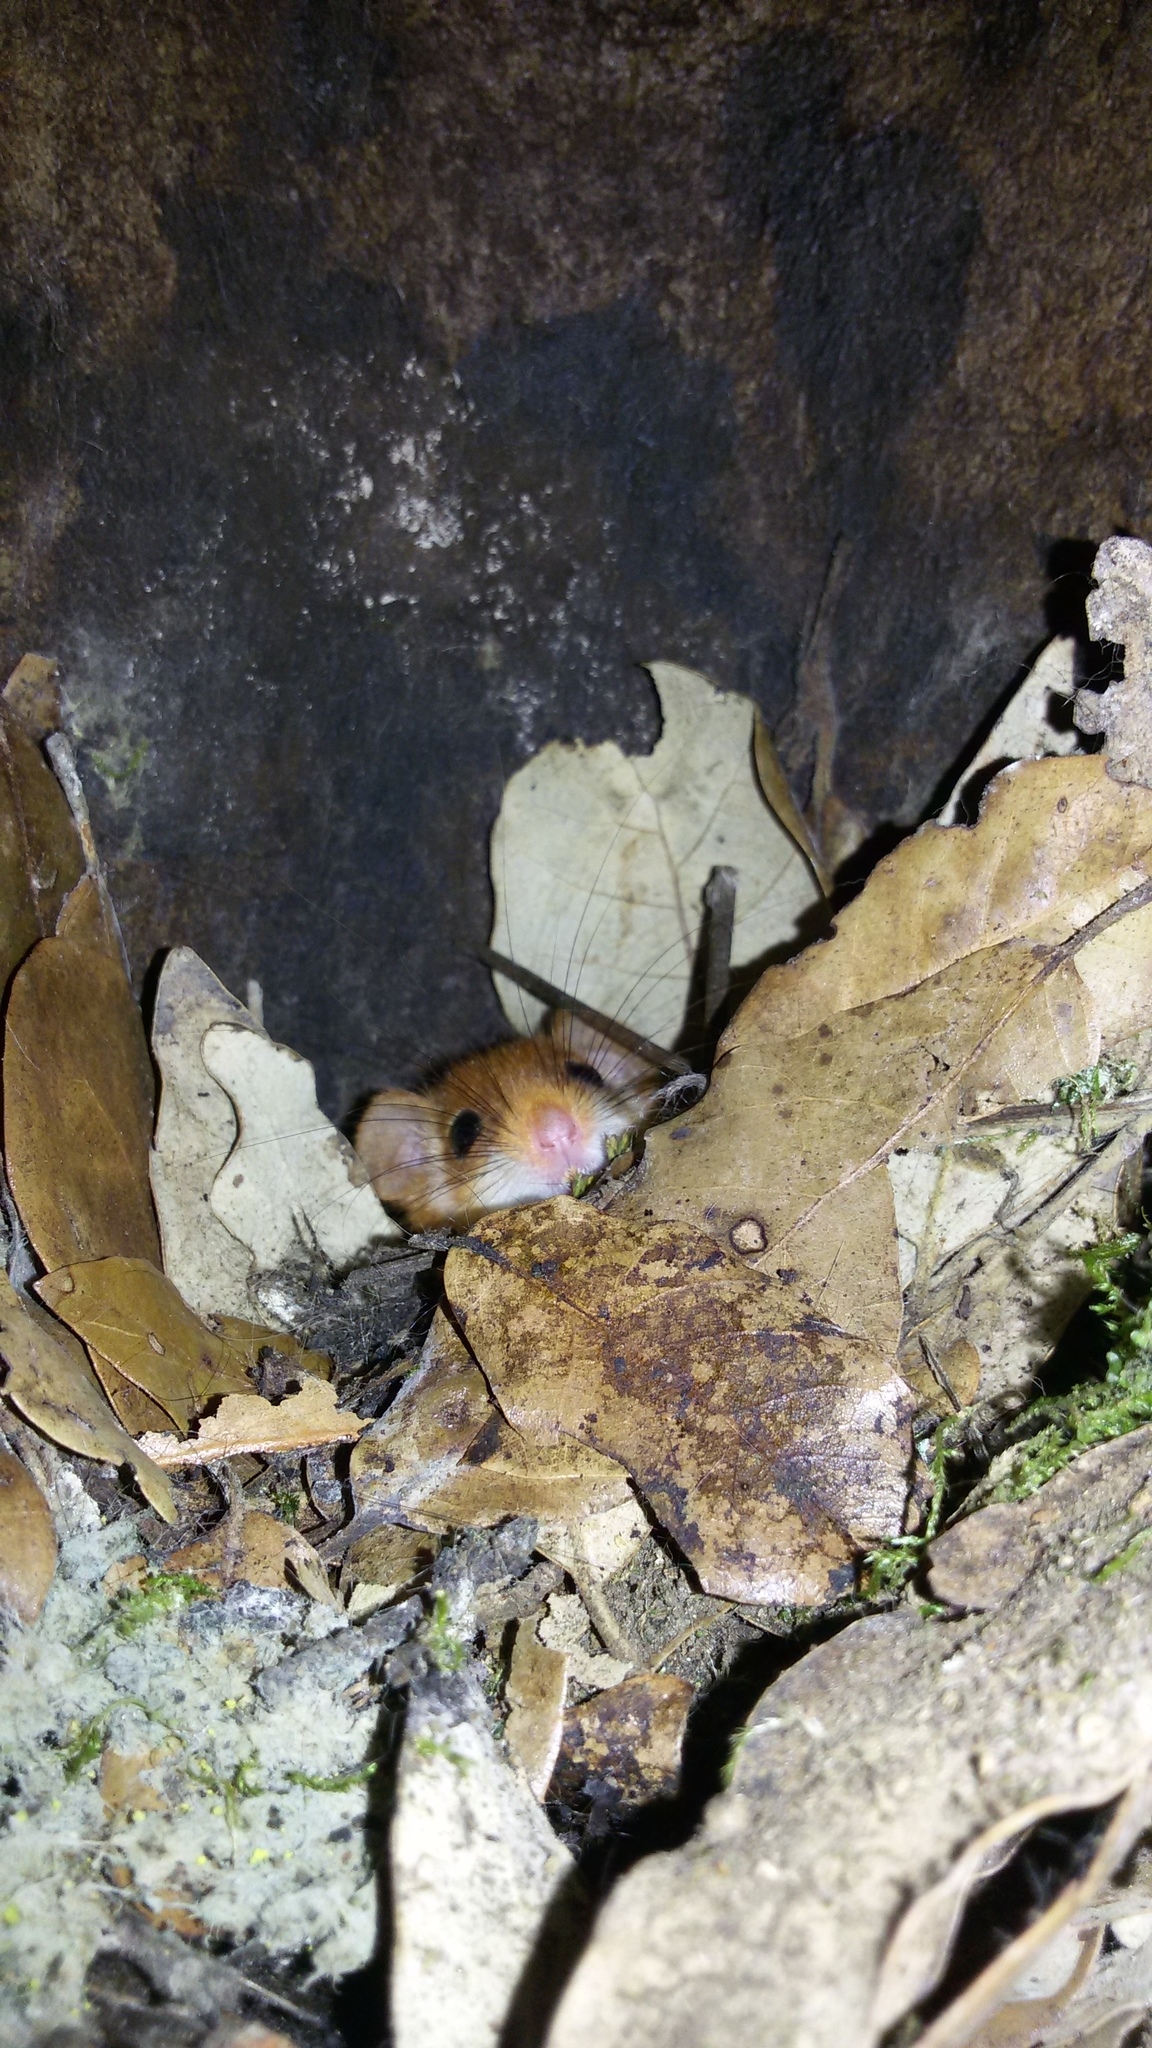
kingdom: Animalia
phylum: Chordata
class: Mammalia
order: Rodentia
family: Gliridae
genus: Muscardinus
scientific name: Muscardinus avellanarius
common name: Hazel dormouse
